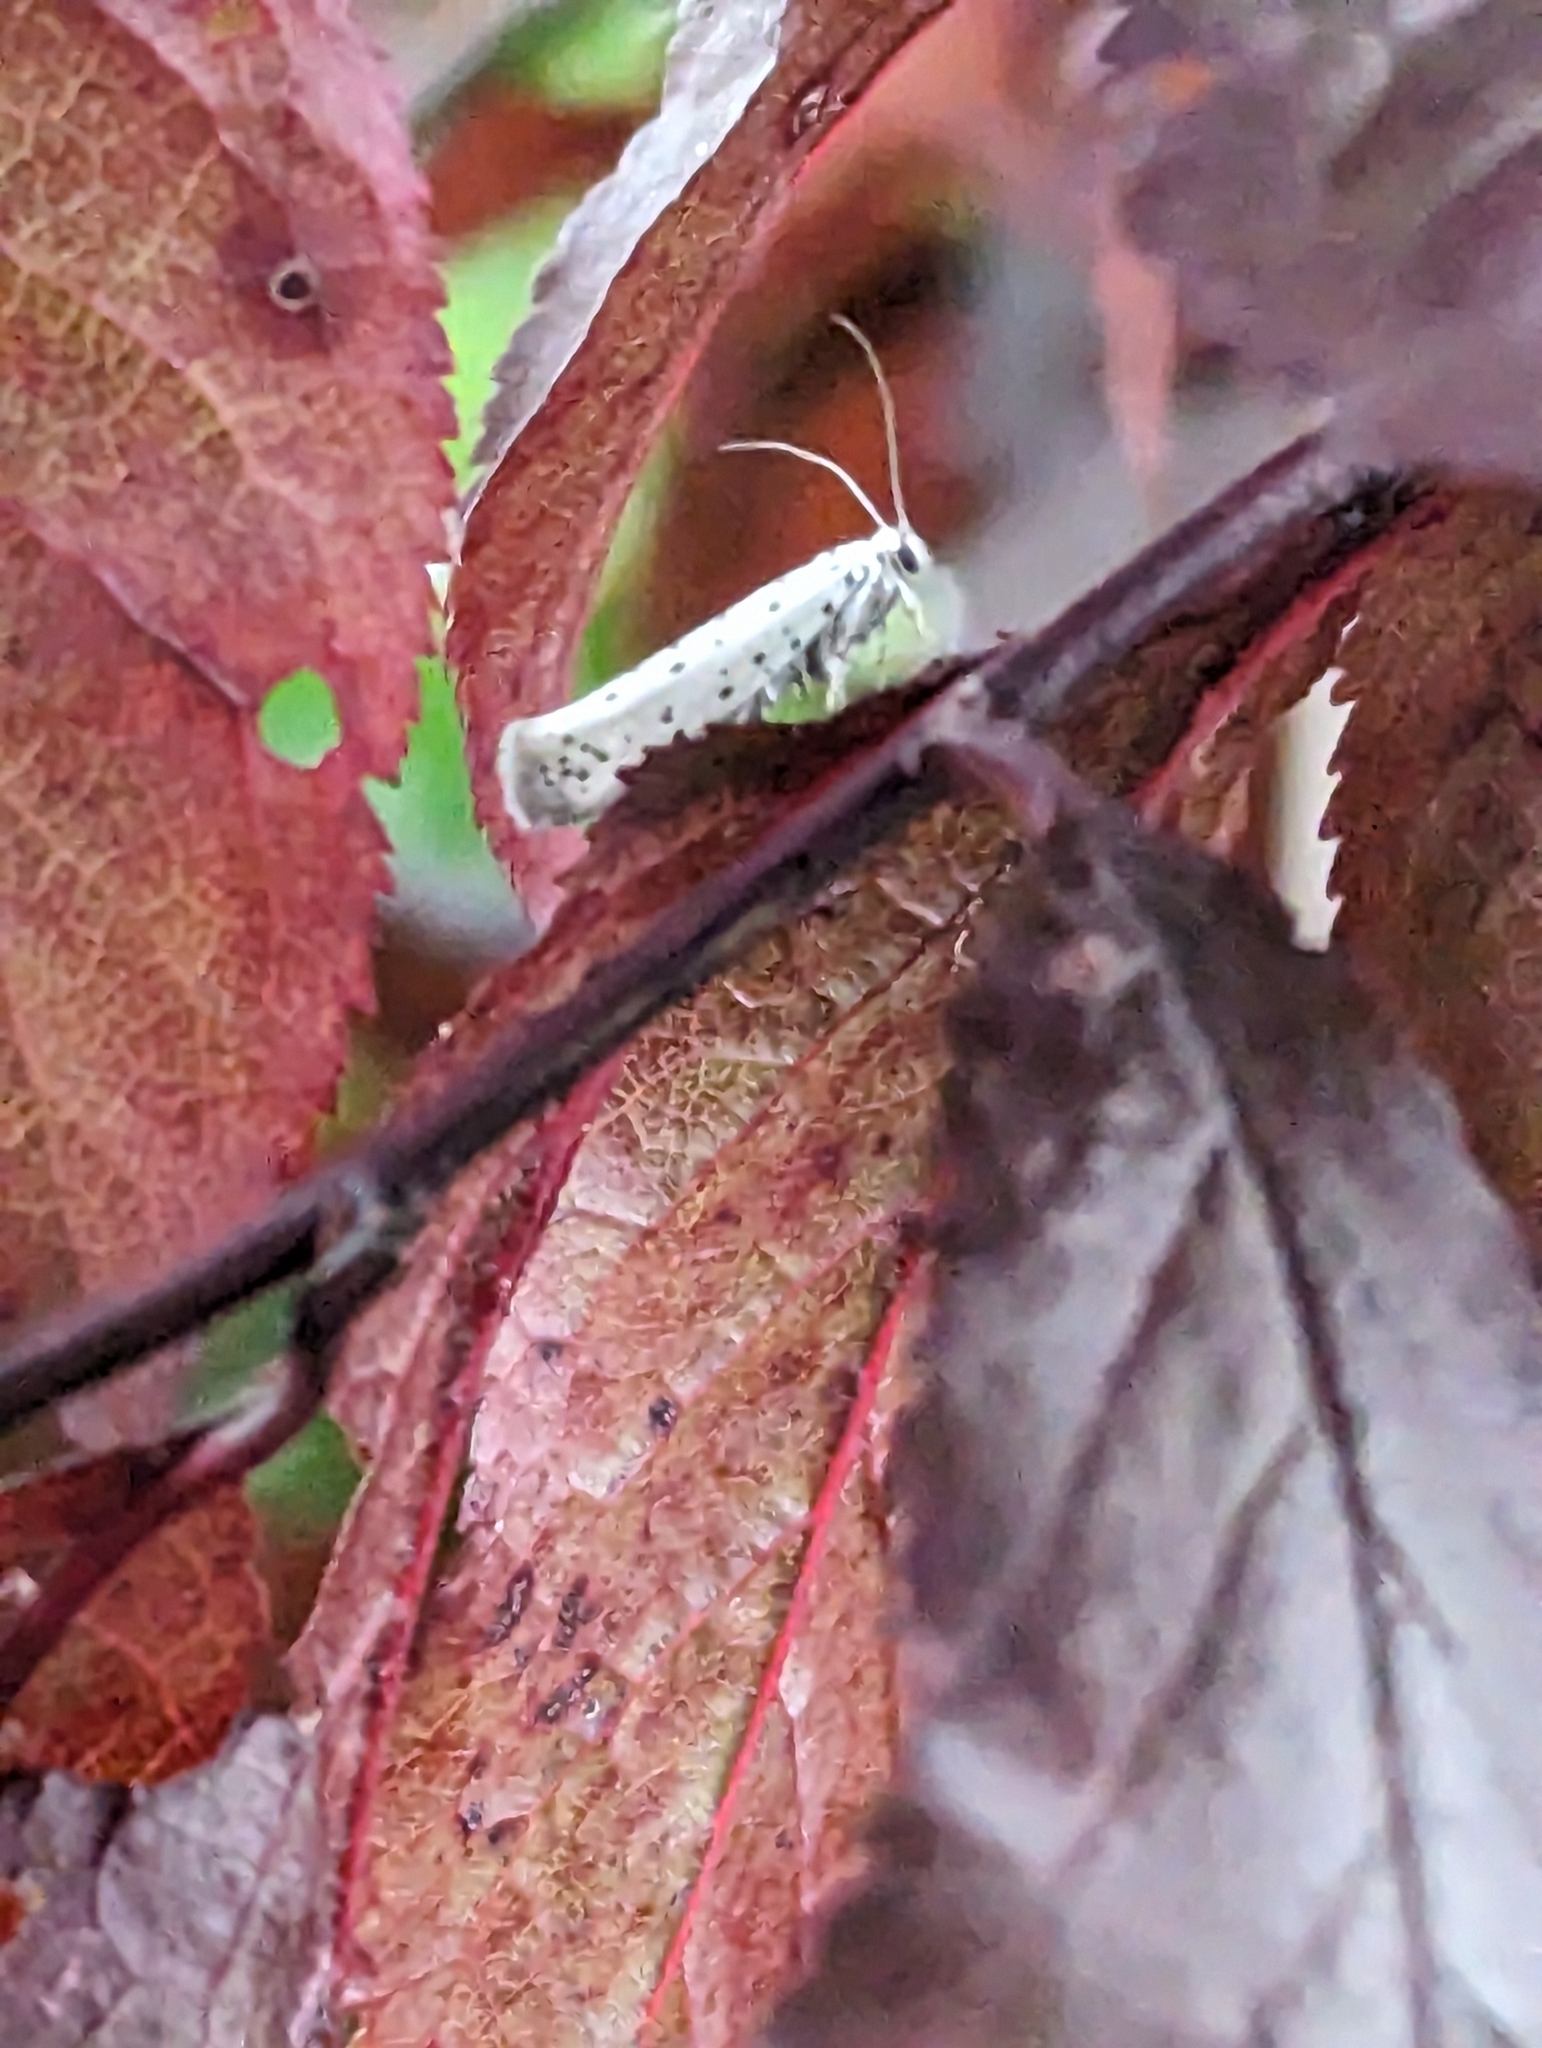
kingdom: Animalia
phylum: Arthropoda
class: Insecta
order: Lepidoptera
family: Yponomeutidae
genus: Yponomeuta
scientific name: Yponomeuta
